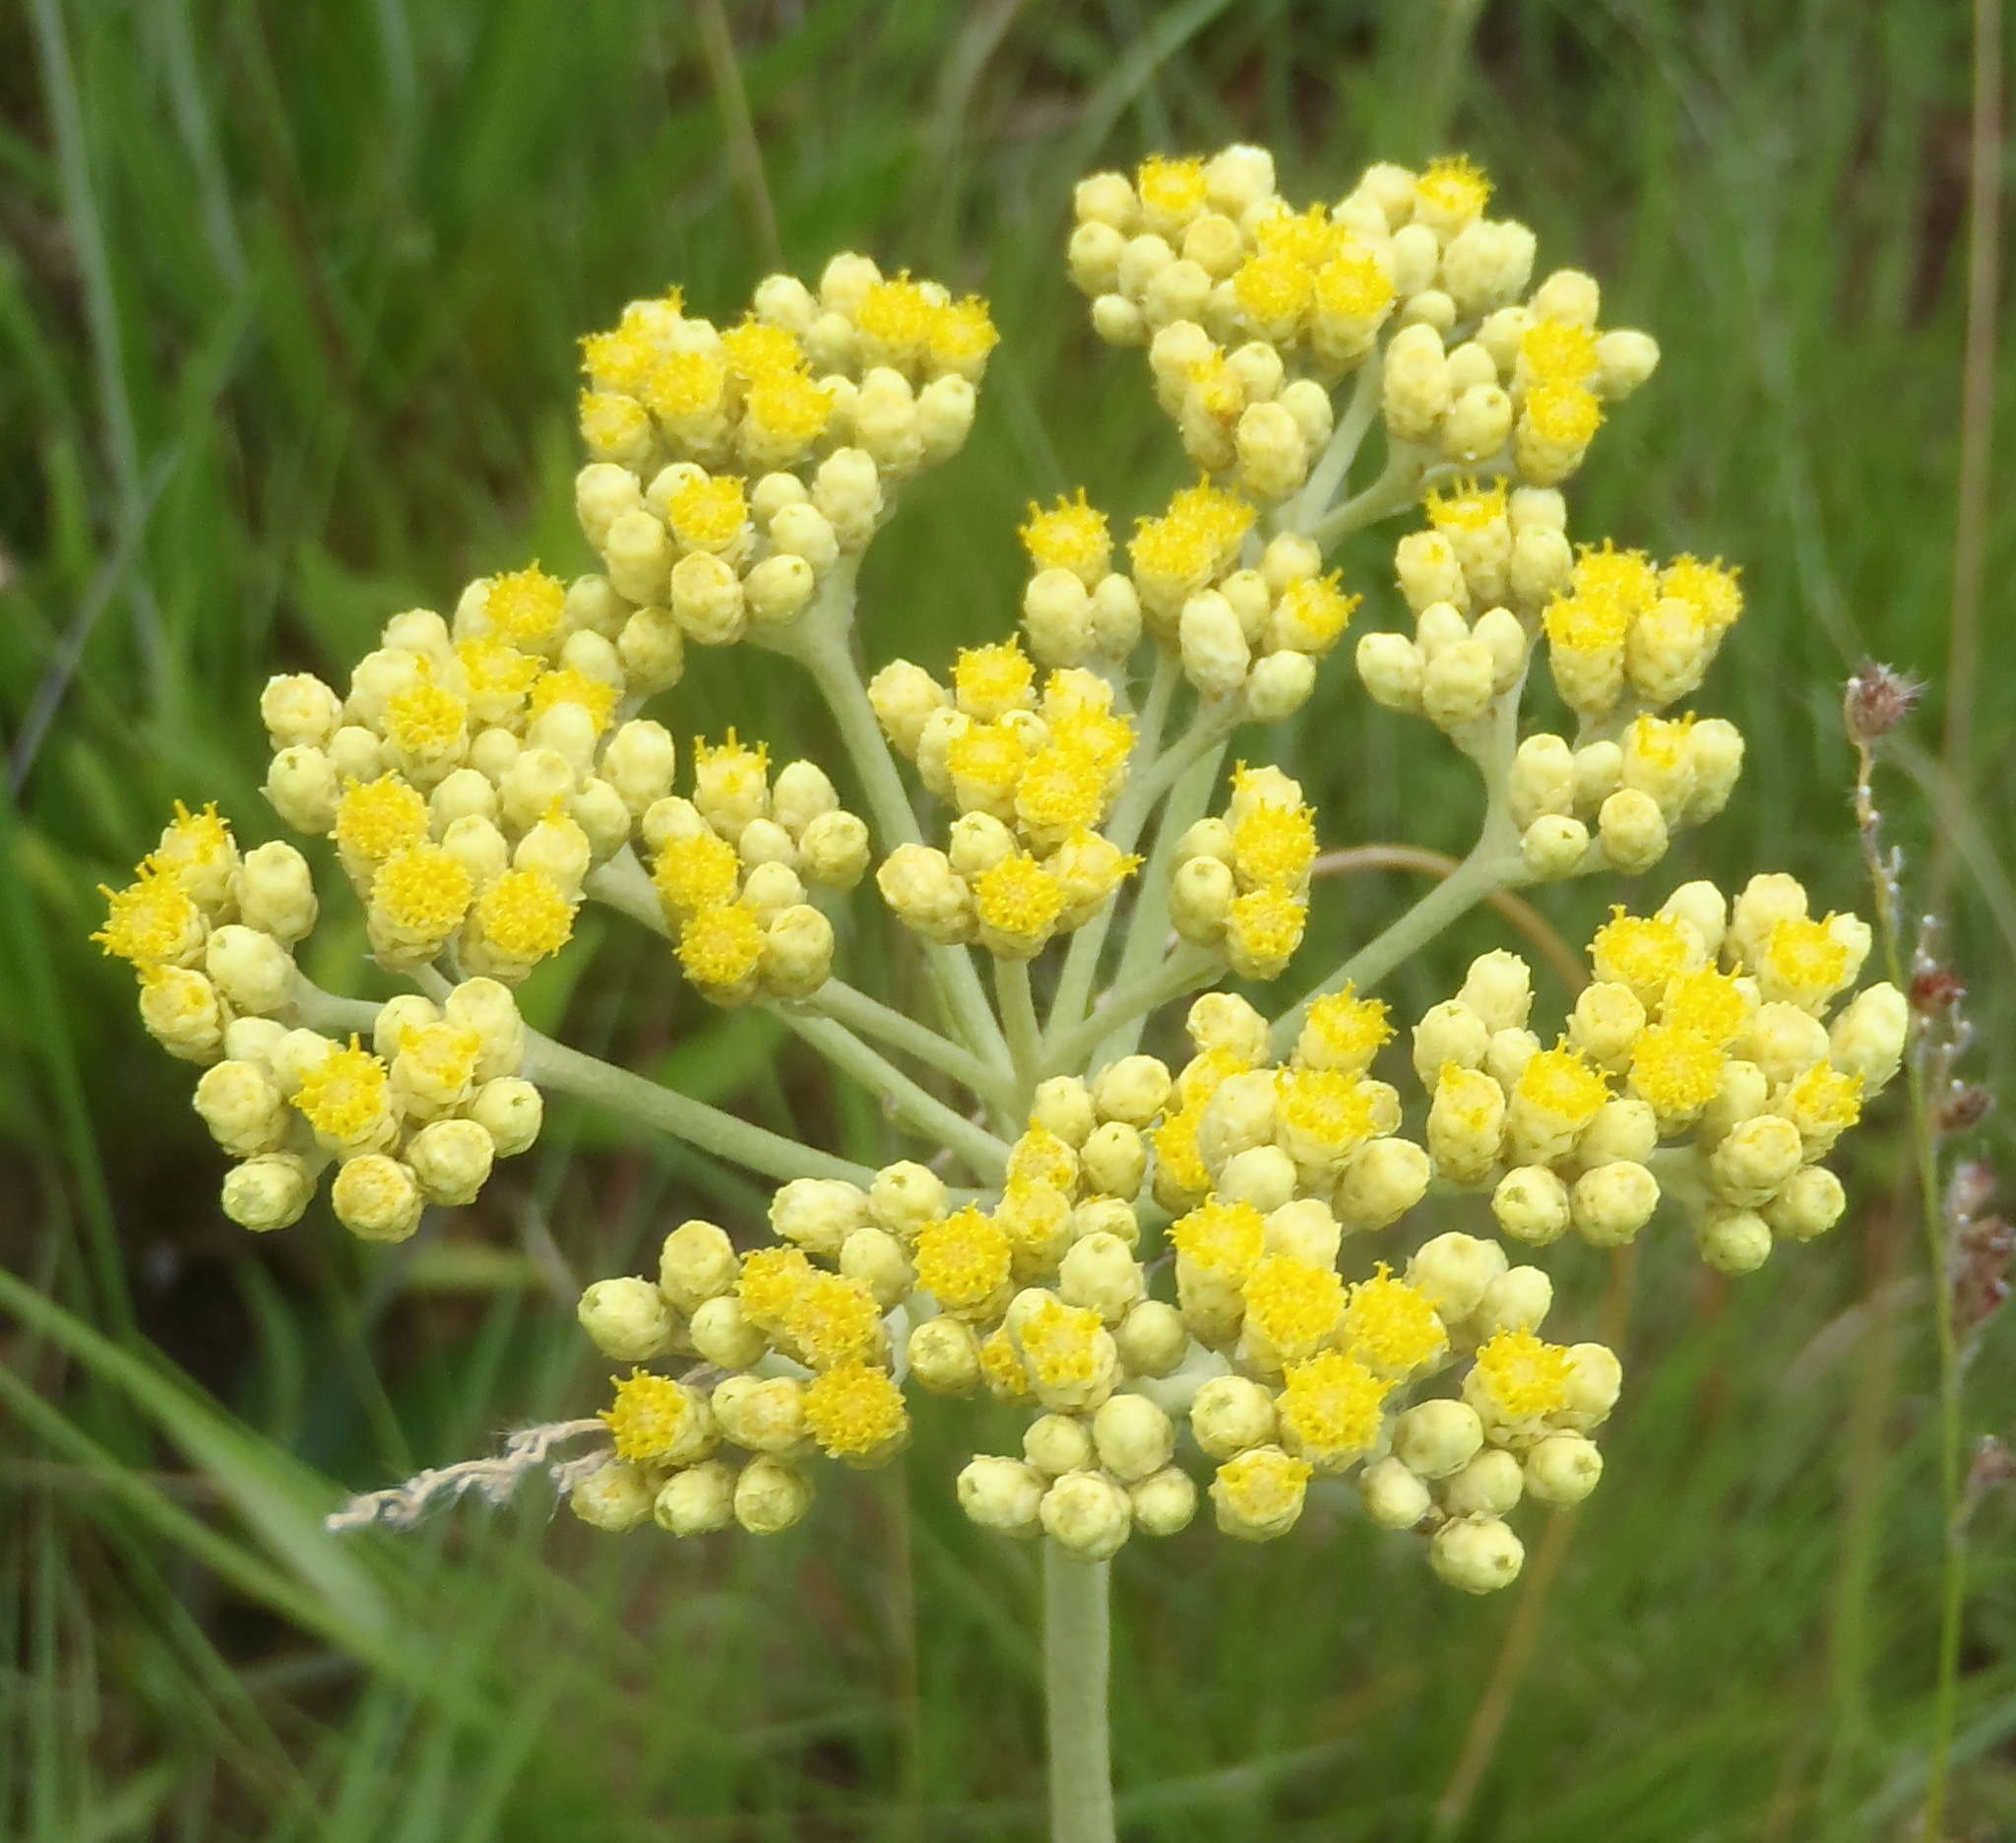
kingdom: Plantae
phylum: Tracheophyta
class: Magnoliopsida
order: Asterales
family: Asteraceae
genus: Helichrysum
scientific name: Helichrysum miconiifolium
